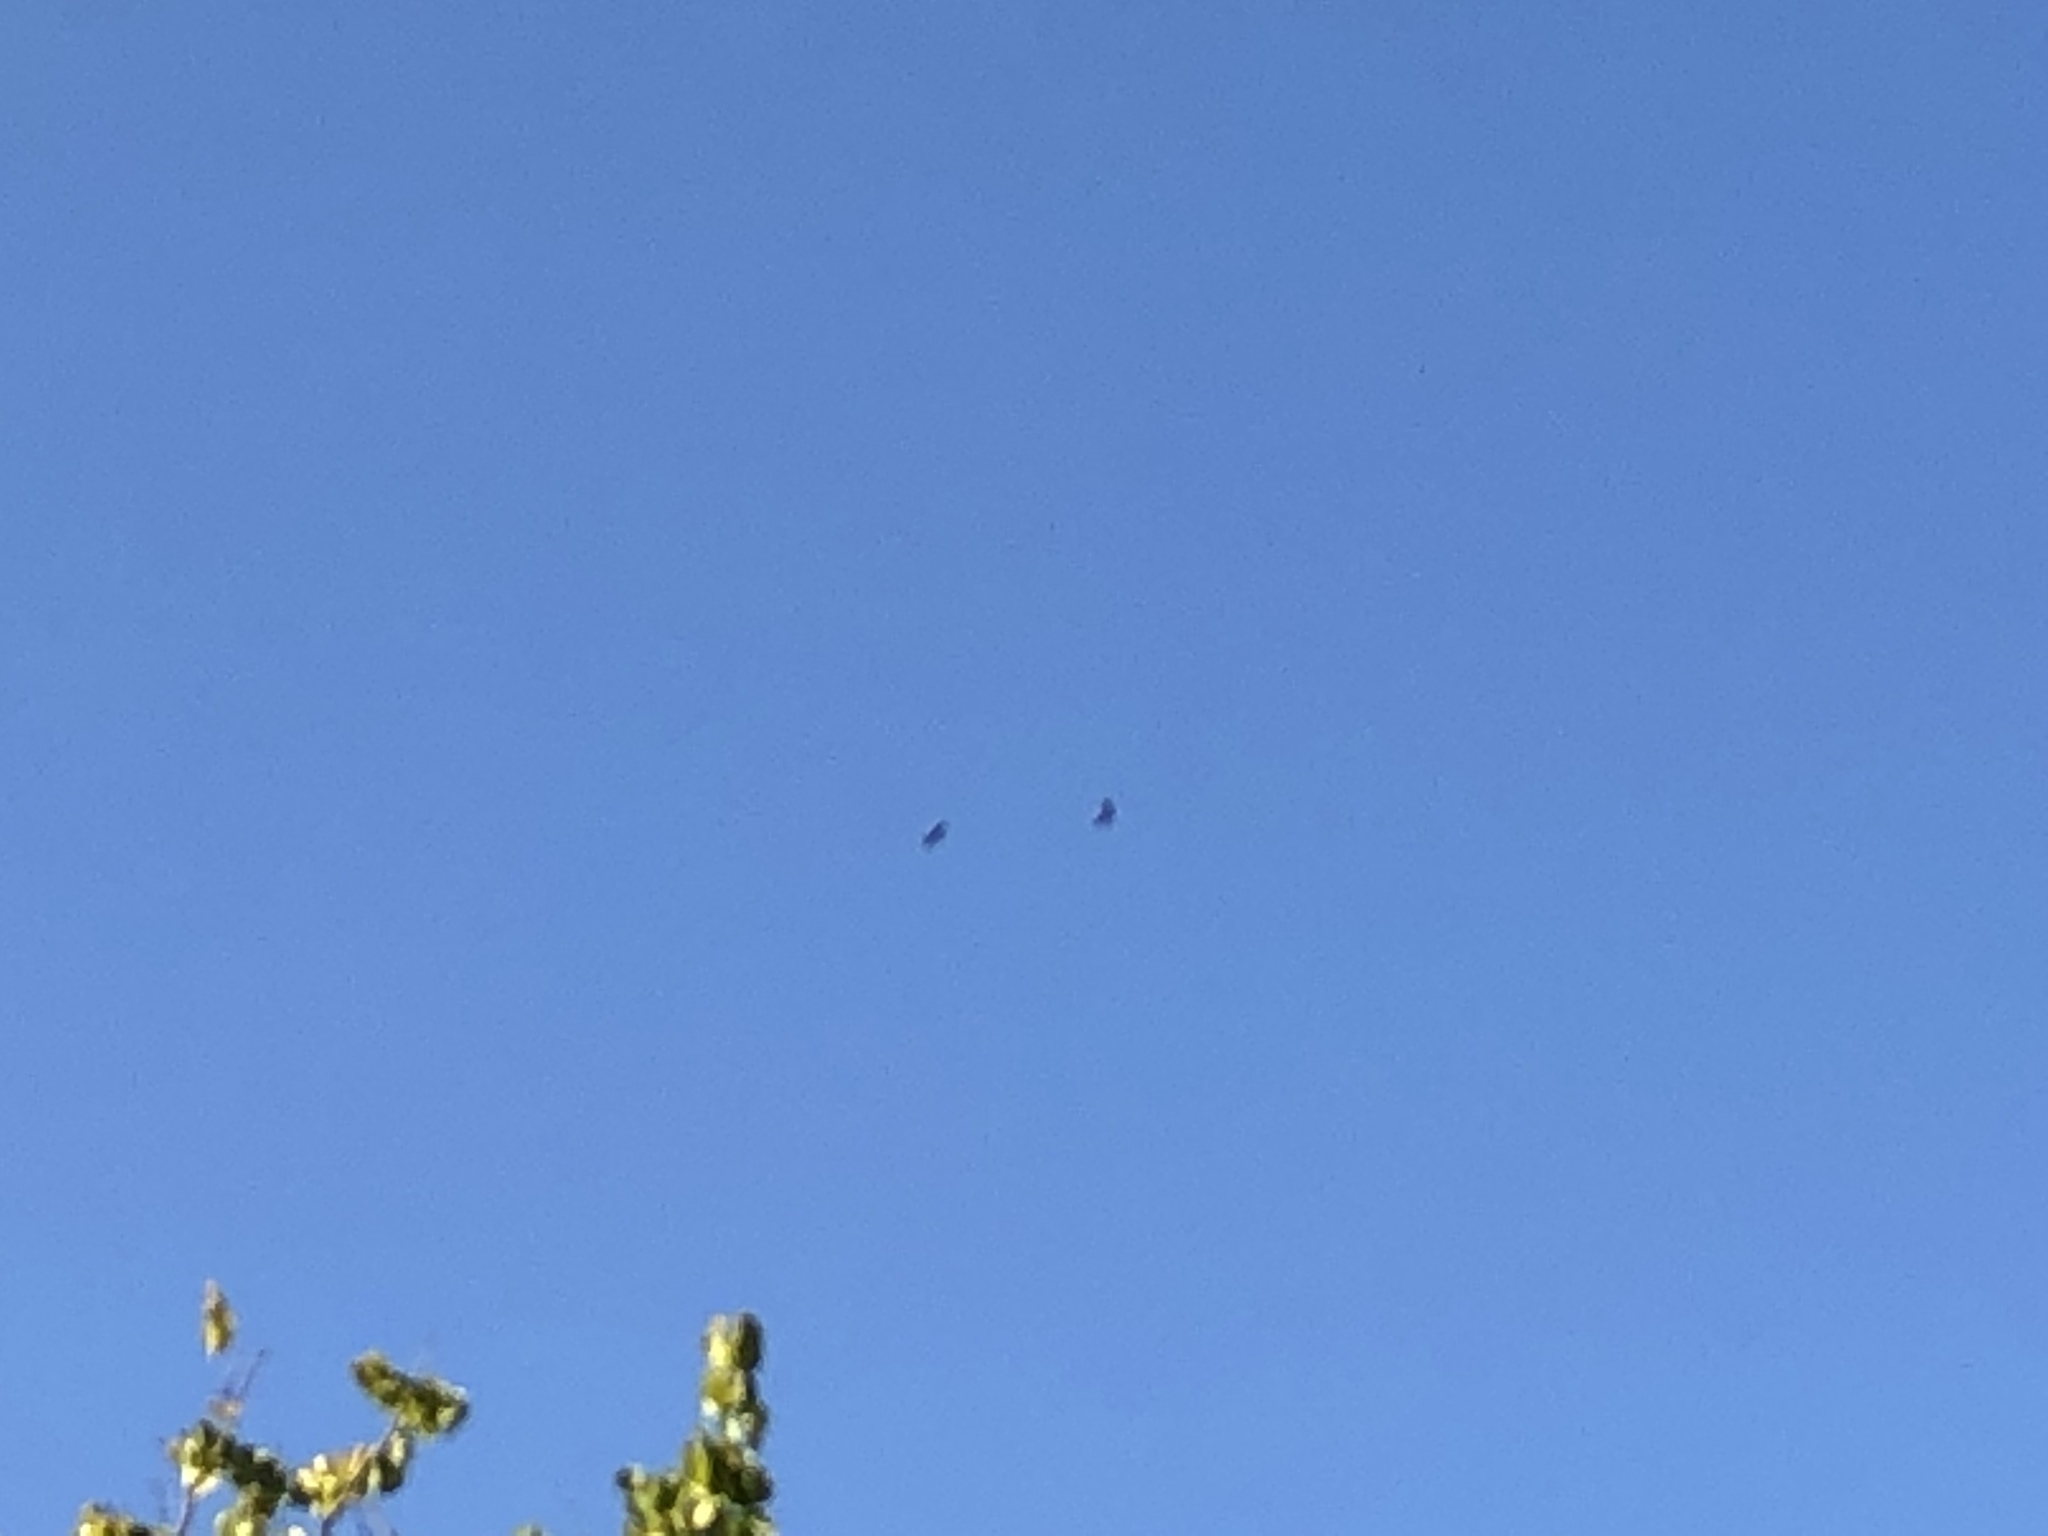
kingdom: Animalia
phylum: Chordata
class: Aves
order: Accipitriformes
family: Accipitridae
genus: Buteo
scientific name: Buteo buteo
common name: Common buzzard
